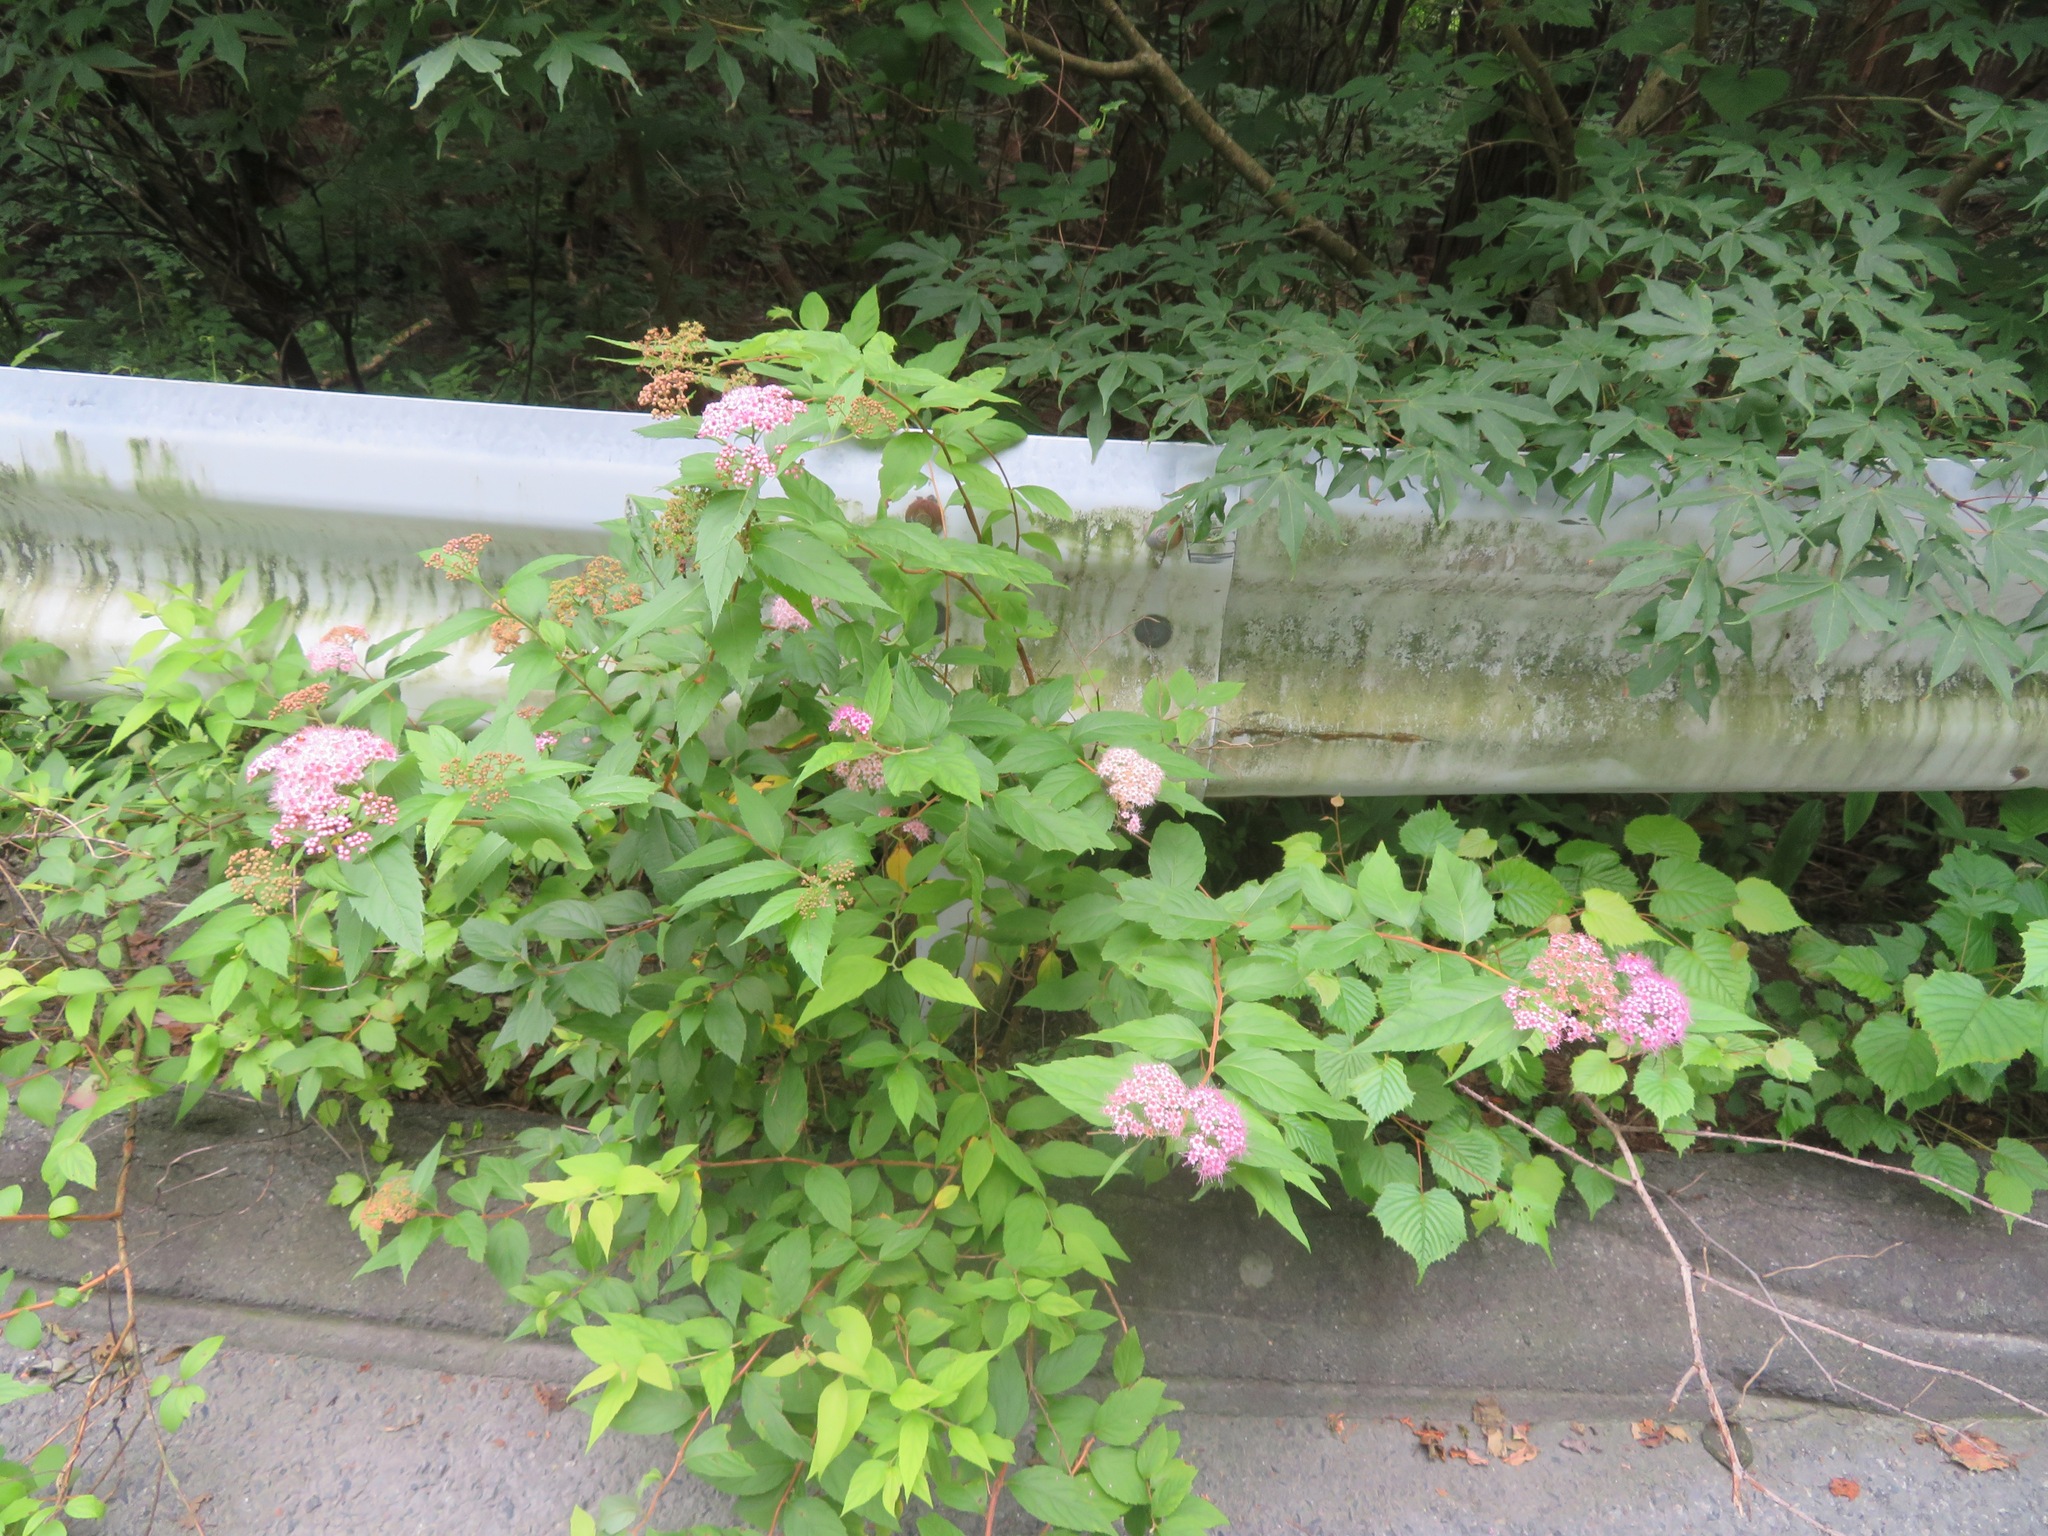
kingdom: Plantae
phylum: Tracheophyta
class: Magnoliopsida
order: Rosales
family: Rosaceae
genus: Spiraea
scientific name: Spiraea japonica
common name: Japanese spiraea
